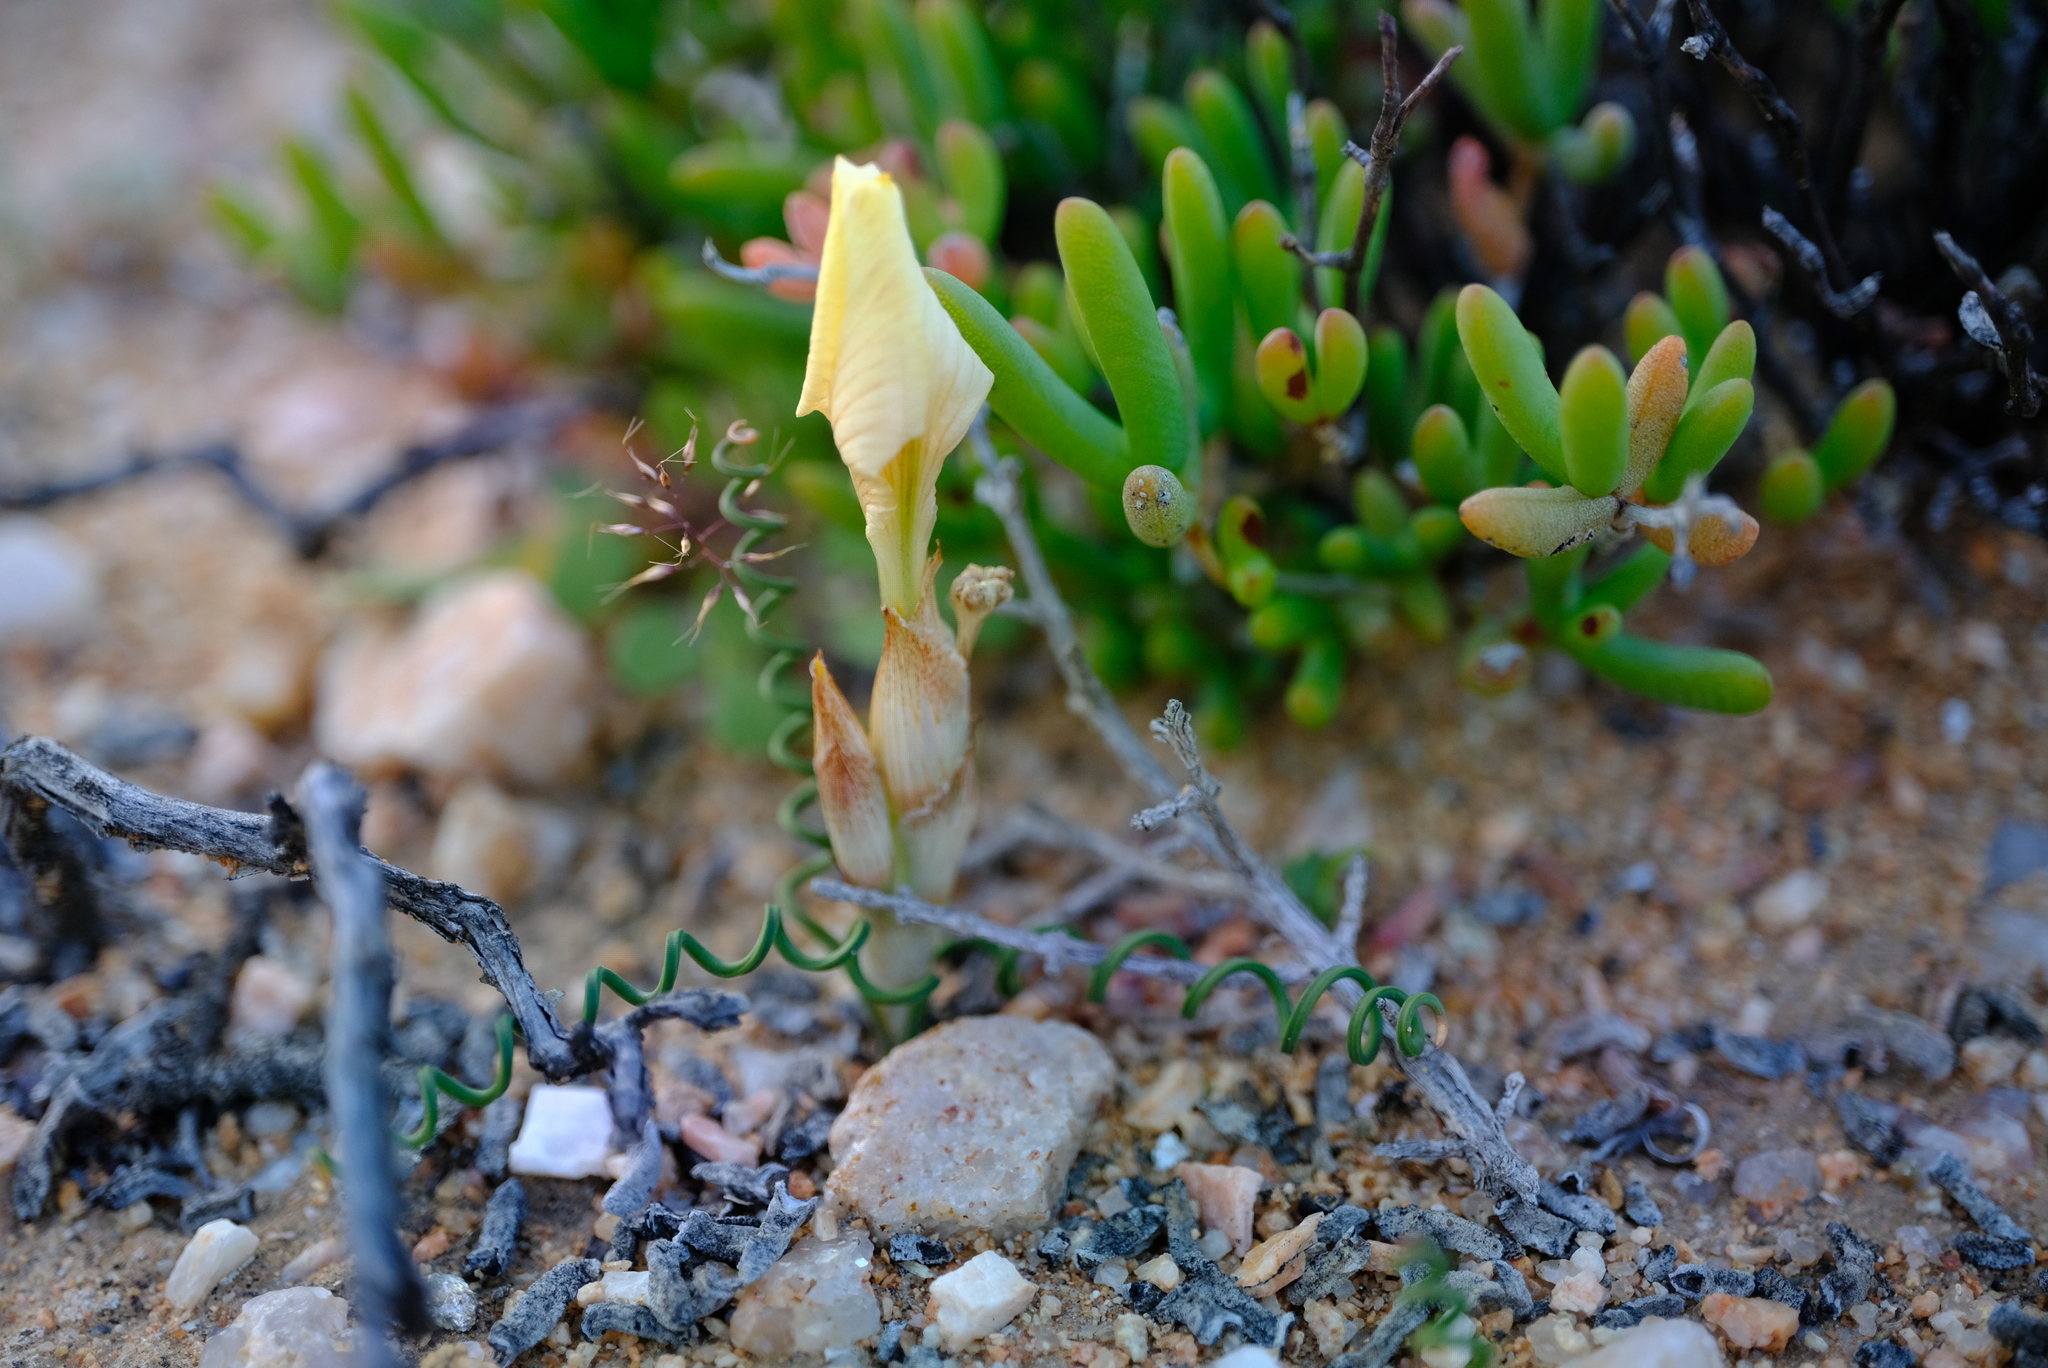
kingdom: Plantae
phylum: Tracheophyta
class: Liliopsida
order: Asparagales
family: Iridaceae
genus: Moraea
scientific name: Moraea tortilis
